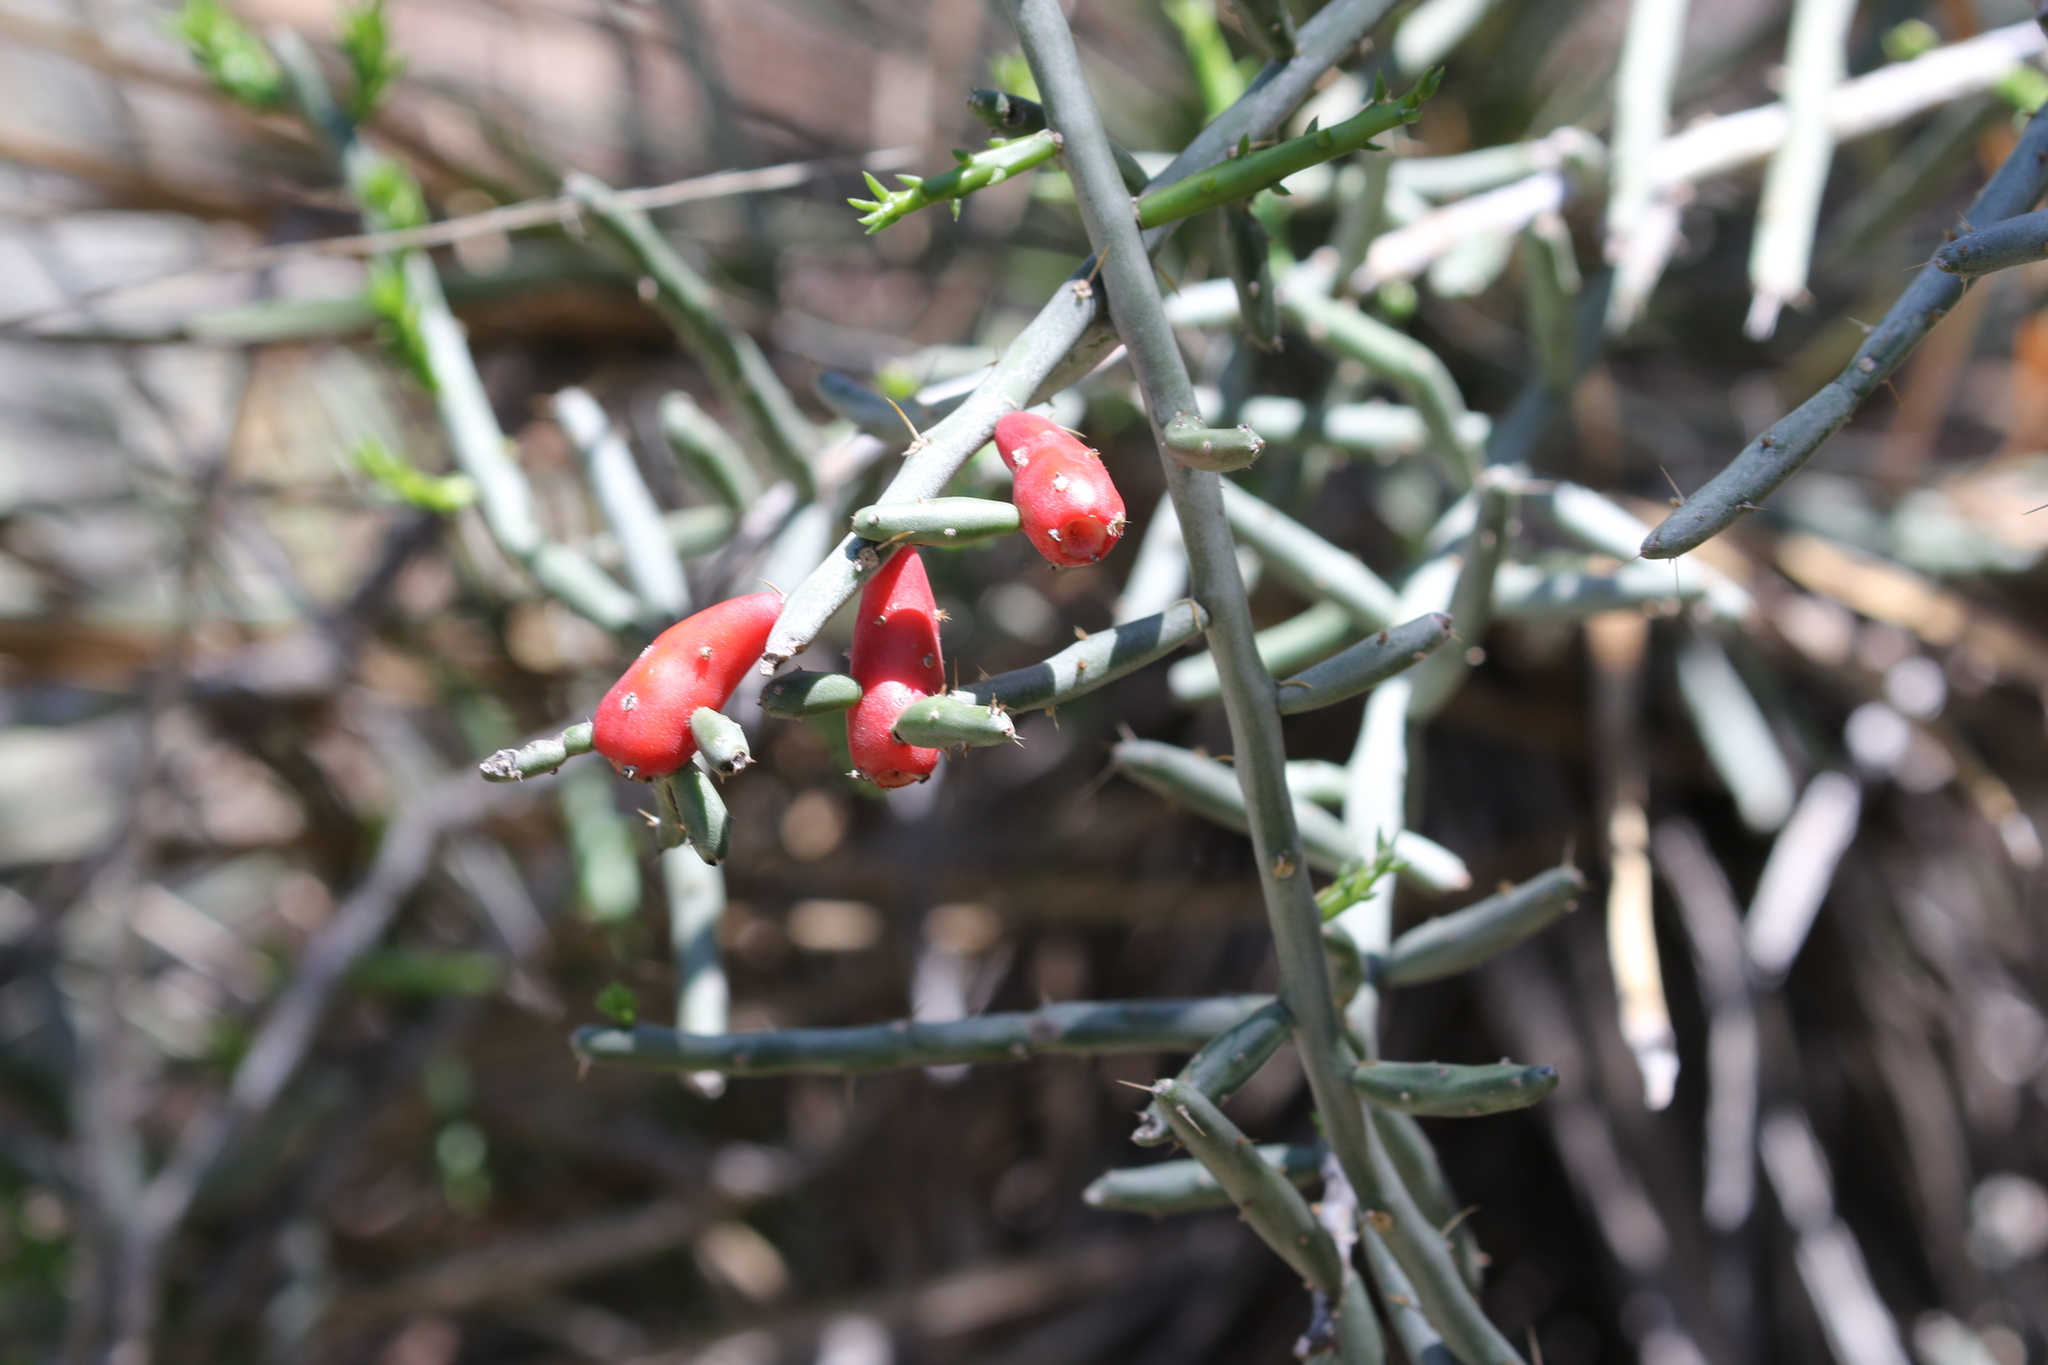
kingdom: Plantae
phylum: Tracheophyta
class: Magnoliopsida
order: Caryophyllales
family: Cactaceae
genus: Cylindropuntia
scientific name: Cylindropuntia leptocaulis
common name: Christmas cactus
